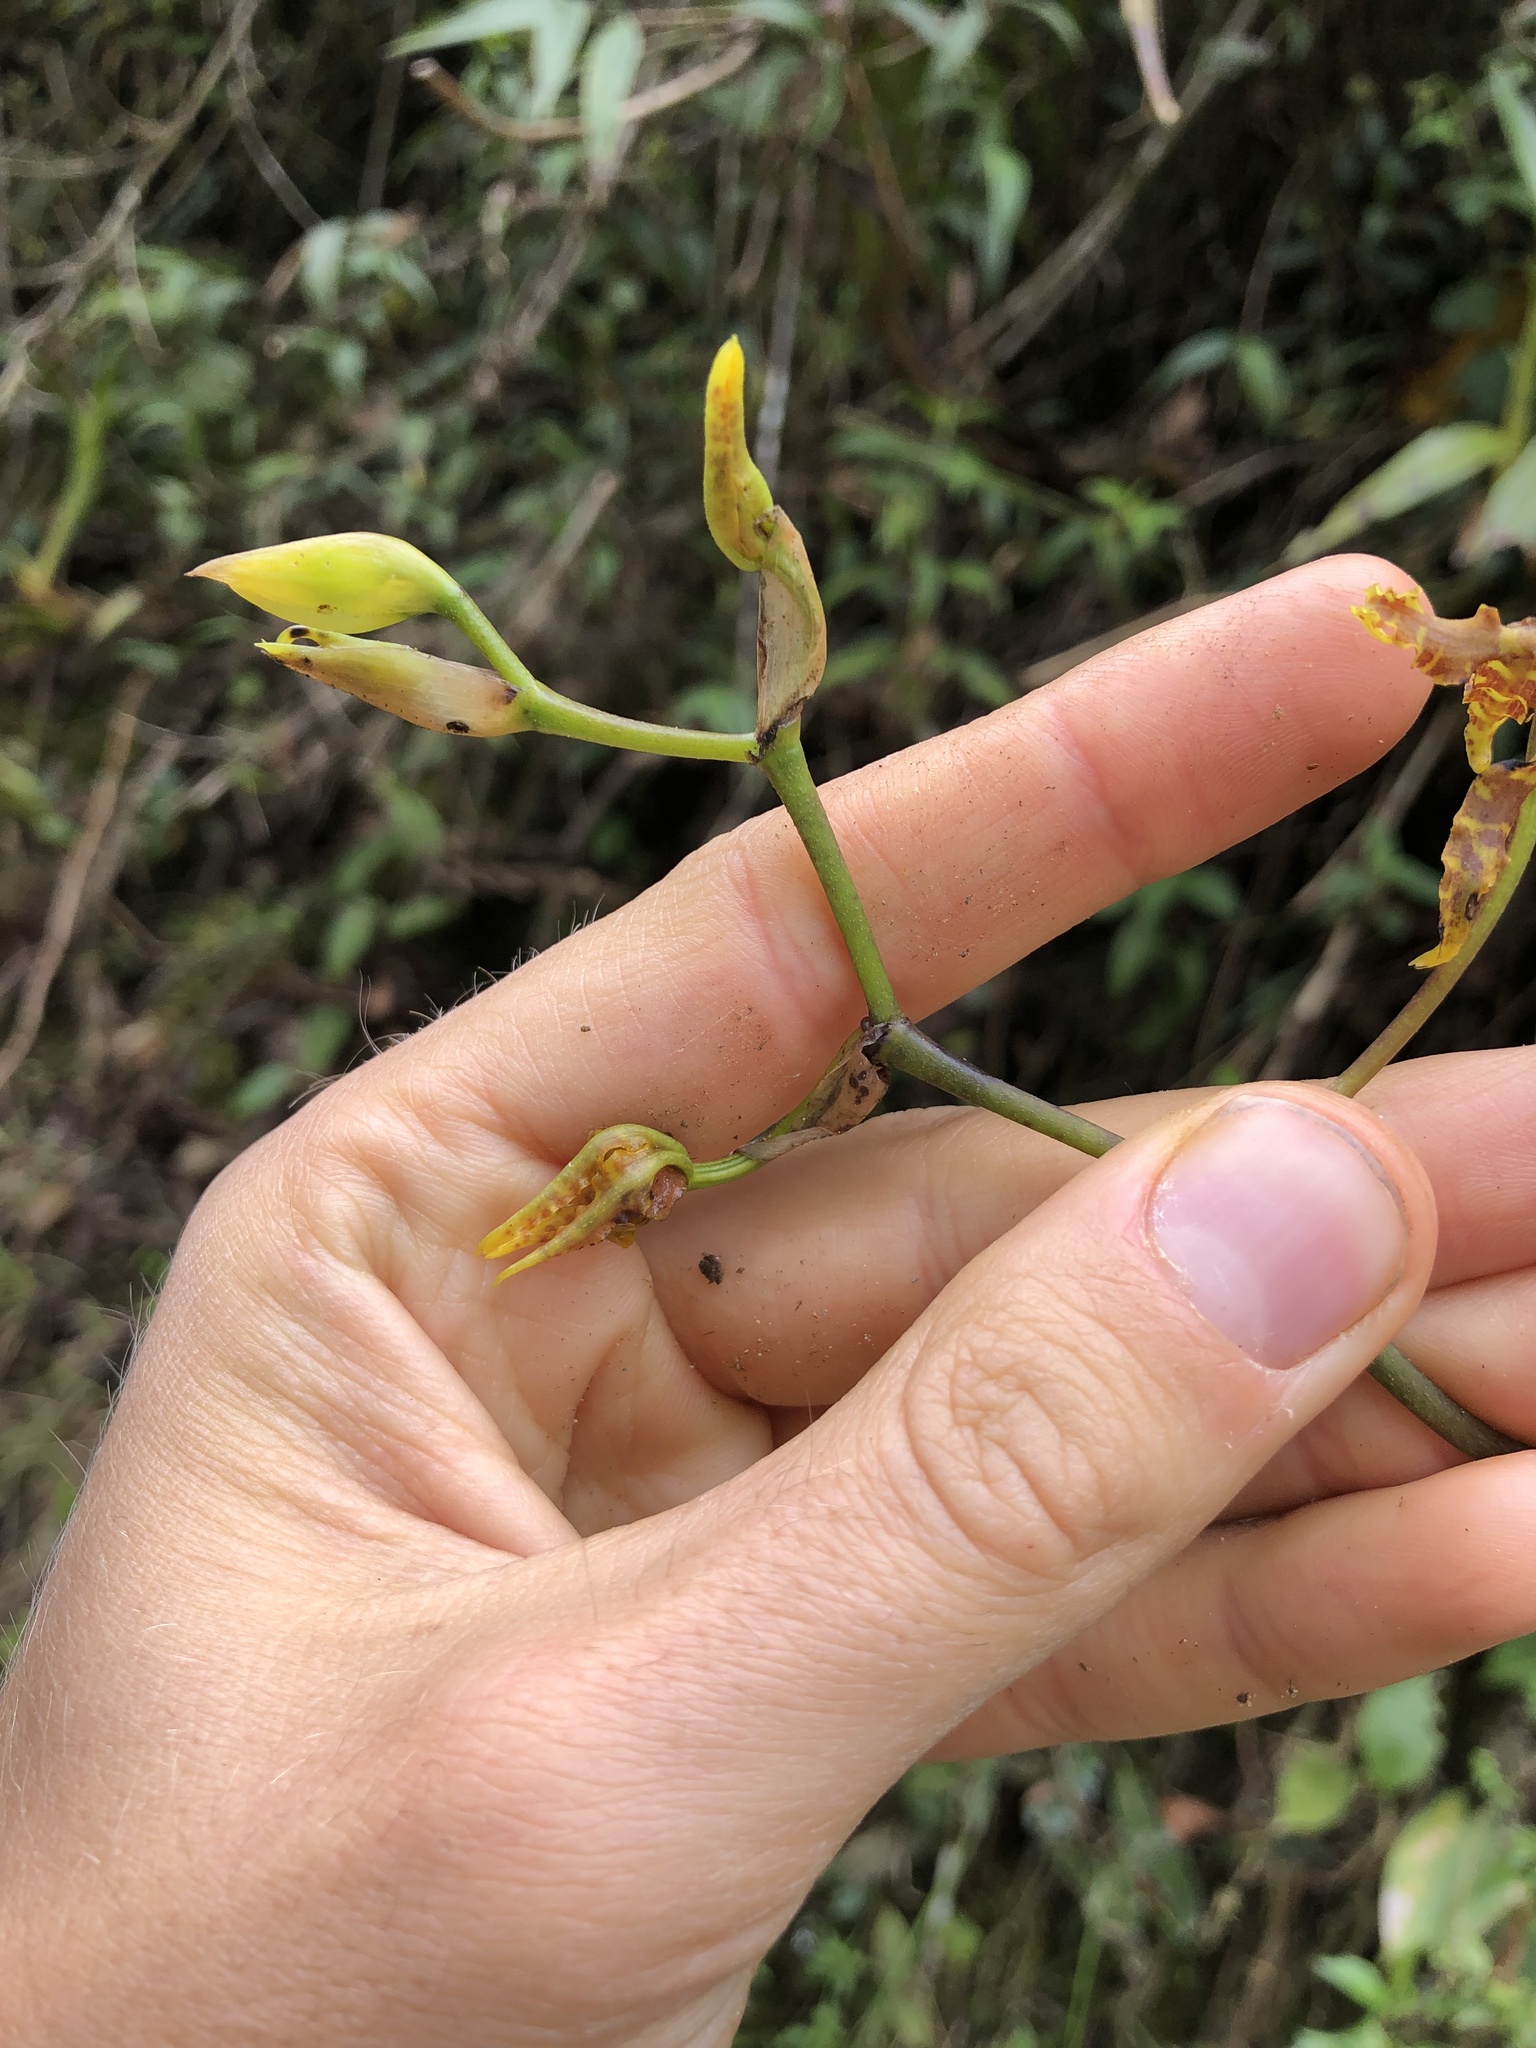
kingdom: Plantae
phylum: Tracheophyta
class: Liliopsida
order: Asparagales
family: Orchidaceae
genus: Cyrtochilum
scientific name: Cyrtochilum divaricatum
